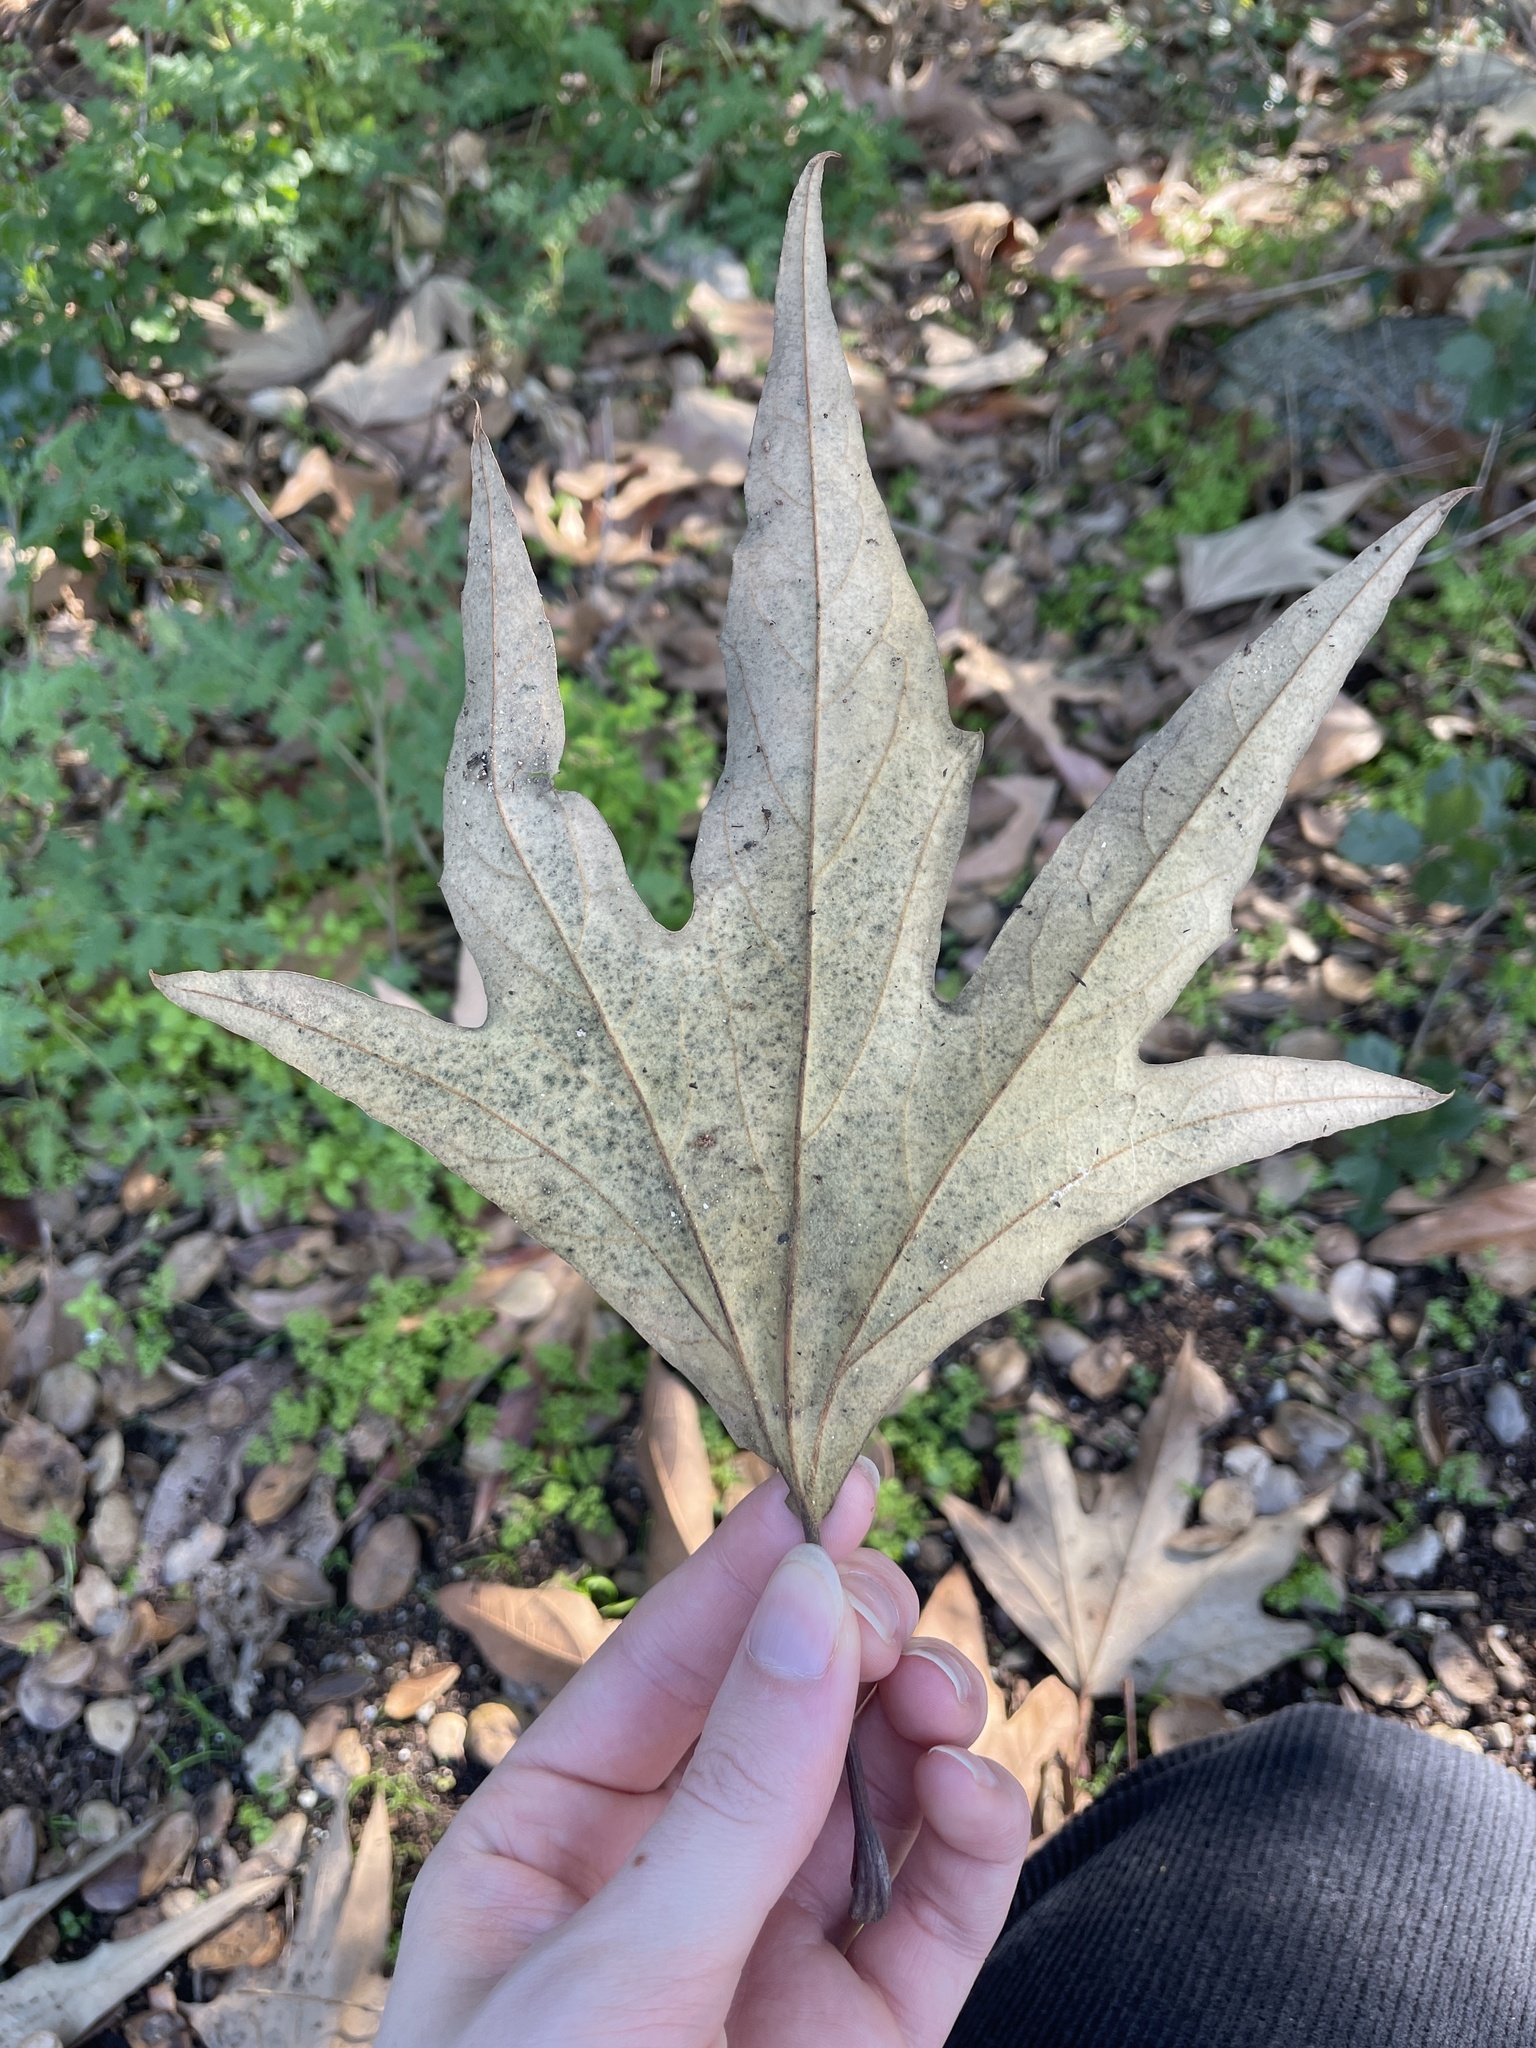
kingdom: Plantae
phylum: Tracheophyta
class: Magnoliopsida
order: Proteales
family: Platanaceae
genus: Platanus
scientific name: Platanus racemosa
